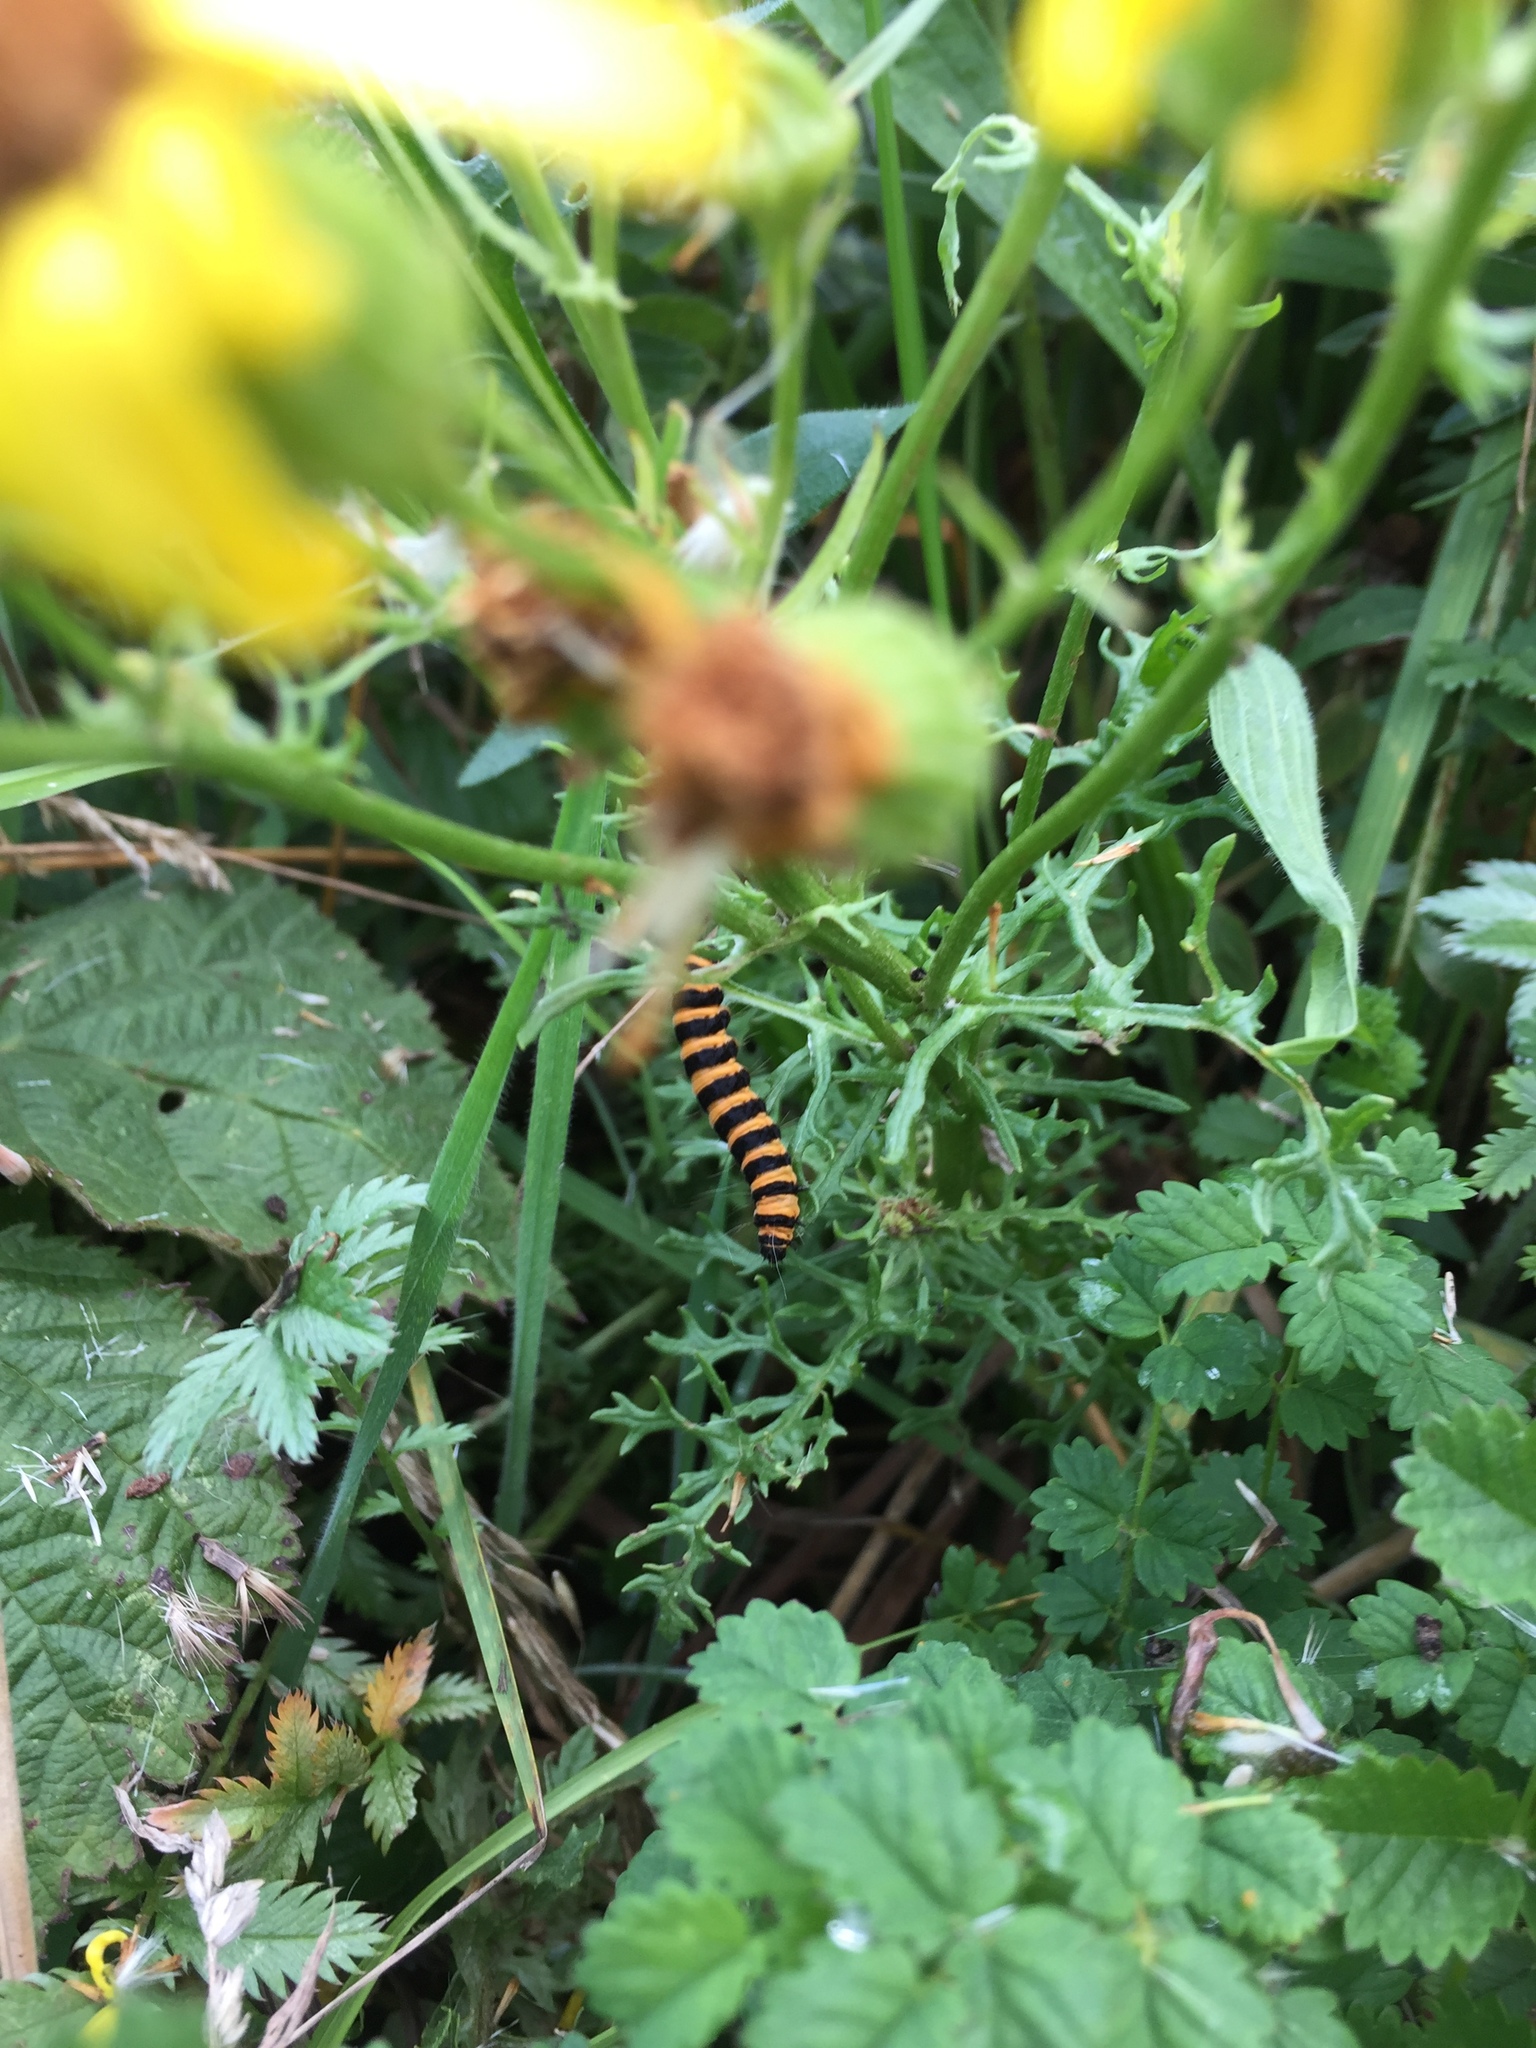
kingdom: Animalia
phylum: Arthropoda
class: Insecta
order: Lepidoptera
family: Erebidae
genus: Tyria
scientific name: Tyria jacobaeae
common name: Cinnabar
